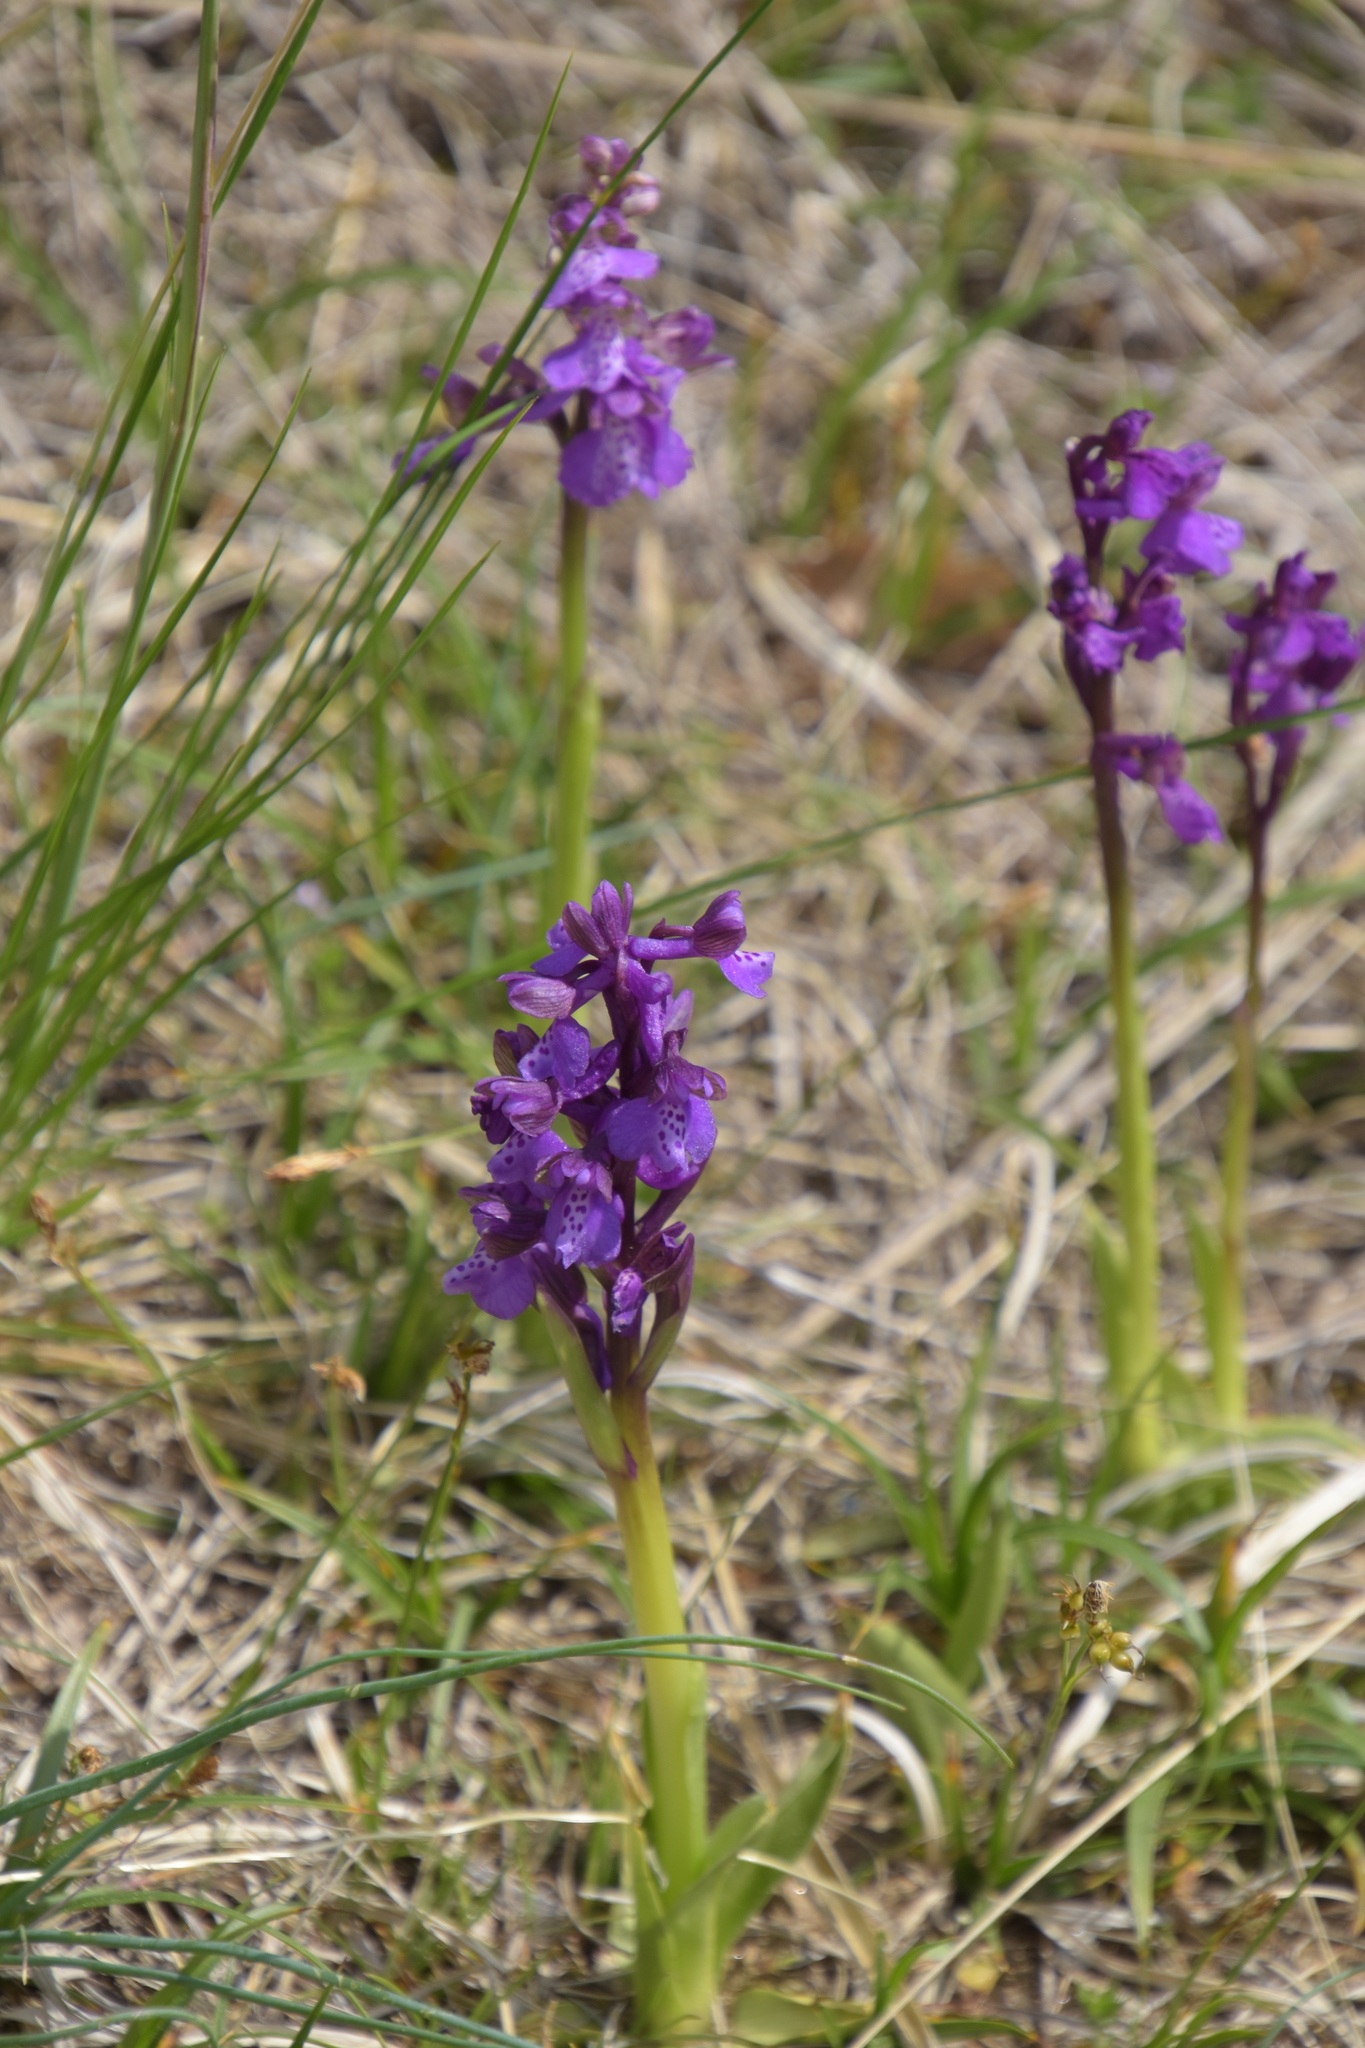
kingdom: Plantae
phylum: Tracheophyta
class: Liliopsida
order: Asparagales
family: Orchidaceae
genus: Anacamptis
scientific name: Anacamptis morio
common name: Green-winged orchid
